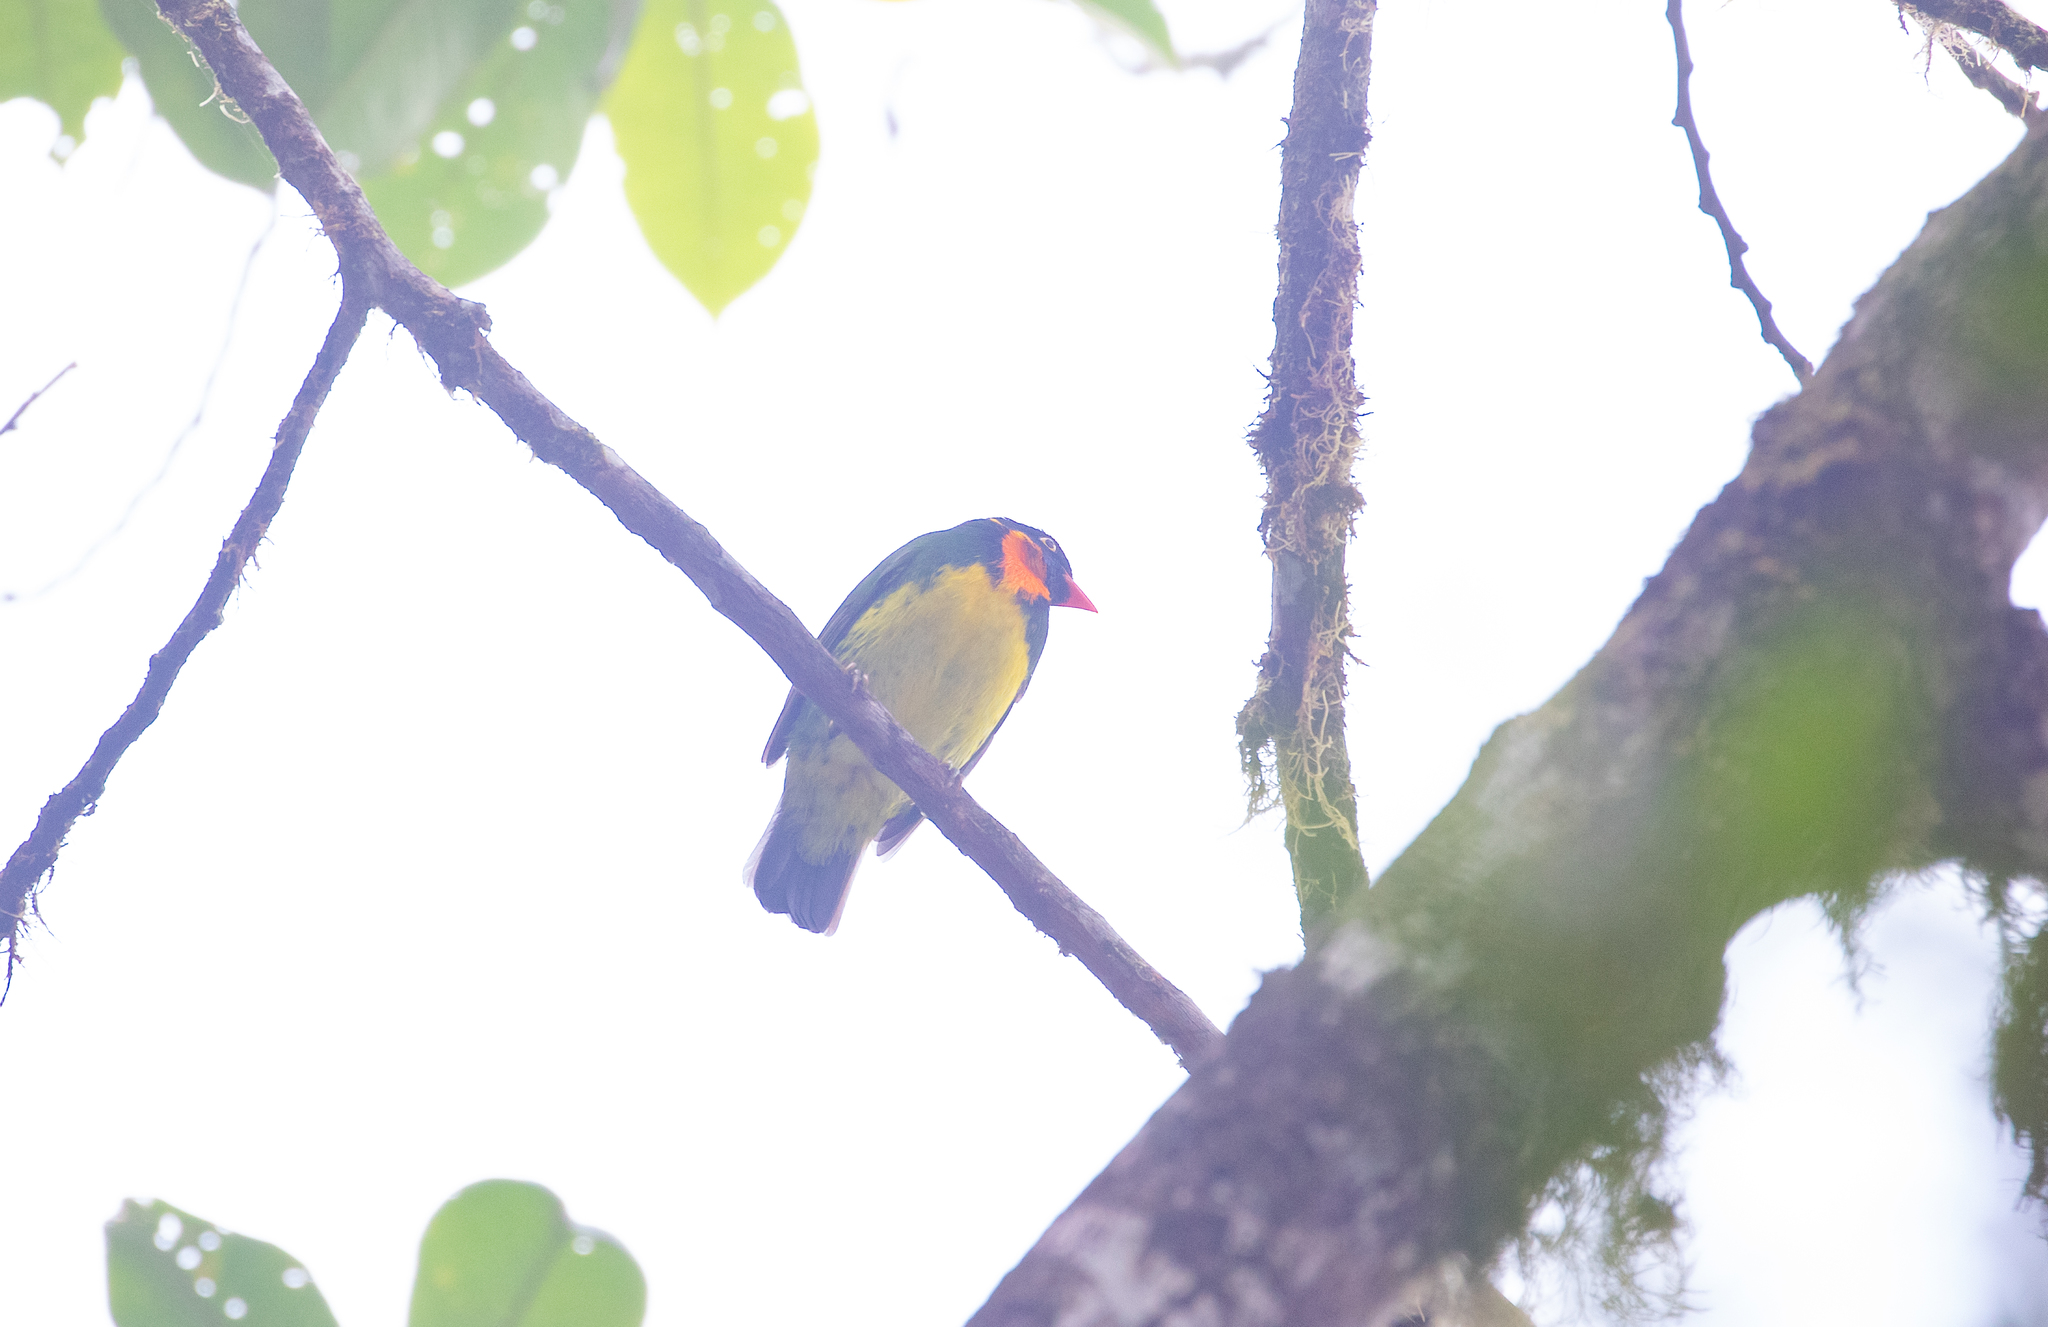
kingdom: Animalia
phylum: Chordata
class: Aves
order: Passeriformes
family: Cotingidae
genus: Pipreola
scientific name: Pipreola jucunda
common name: Orange-breasted fruiteater
